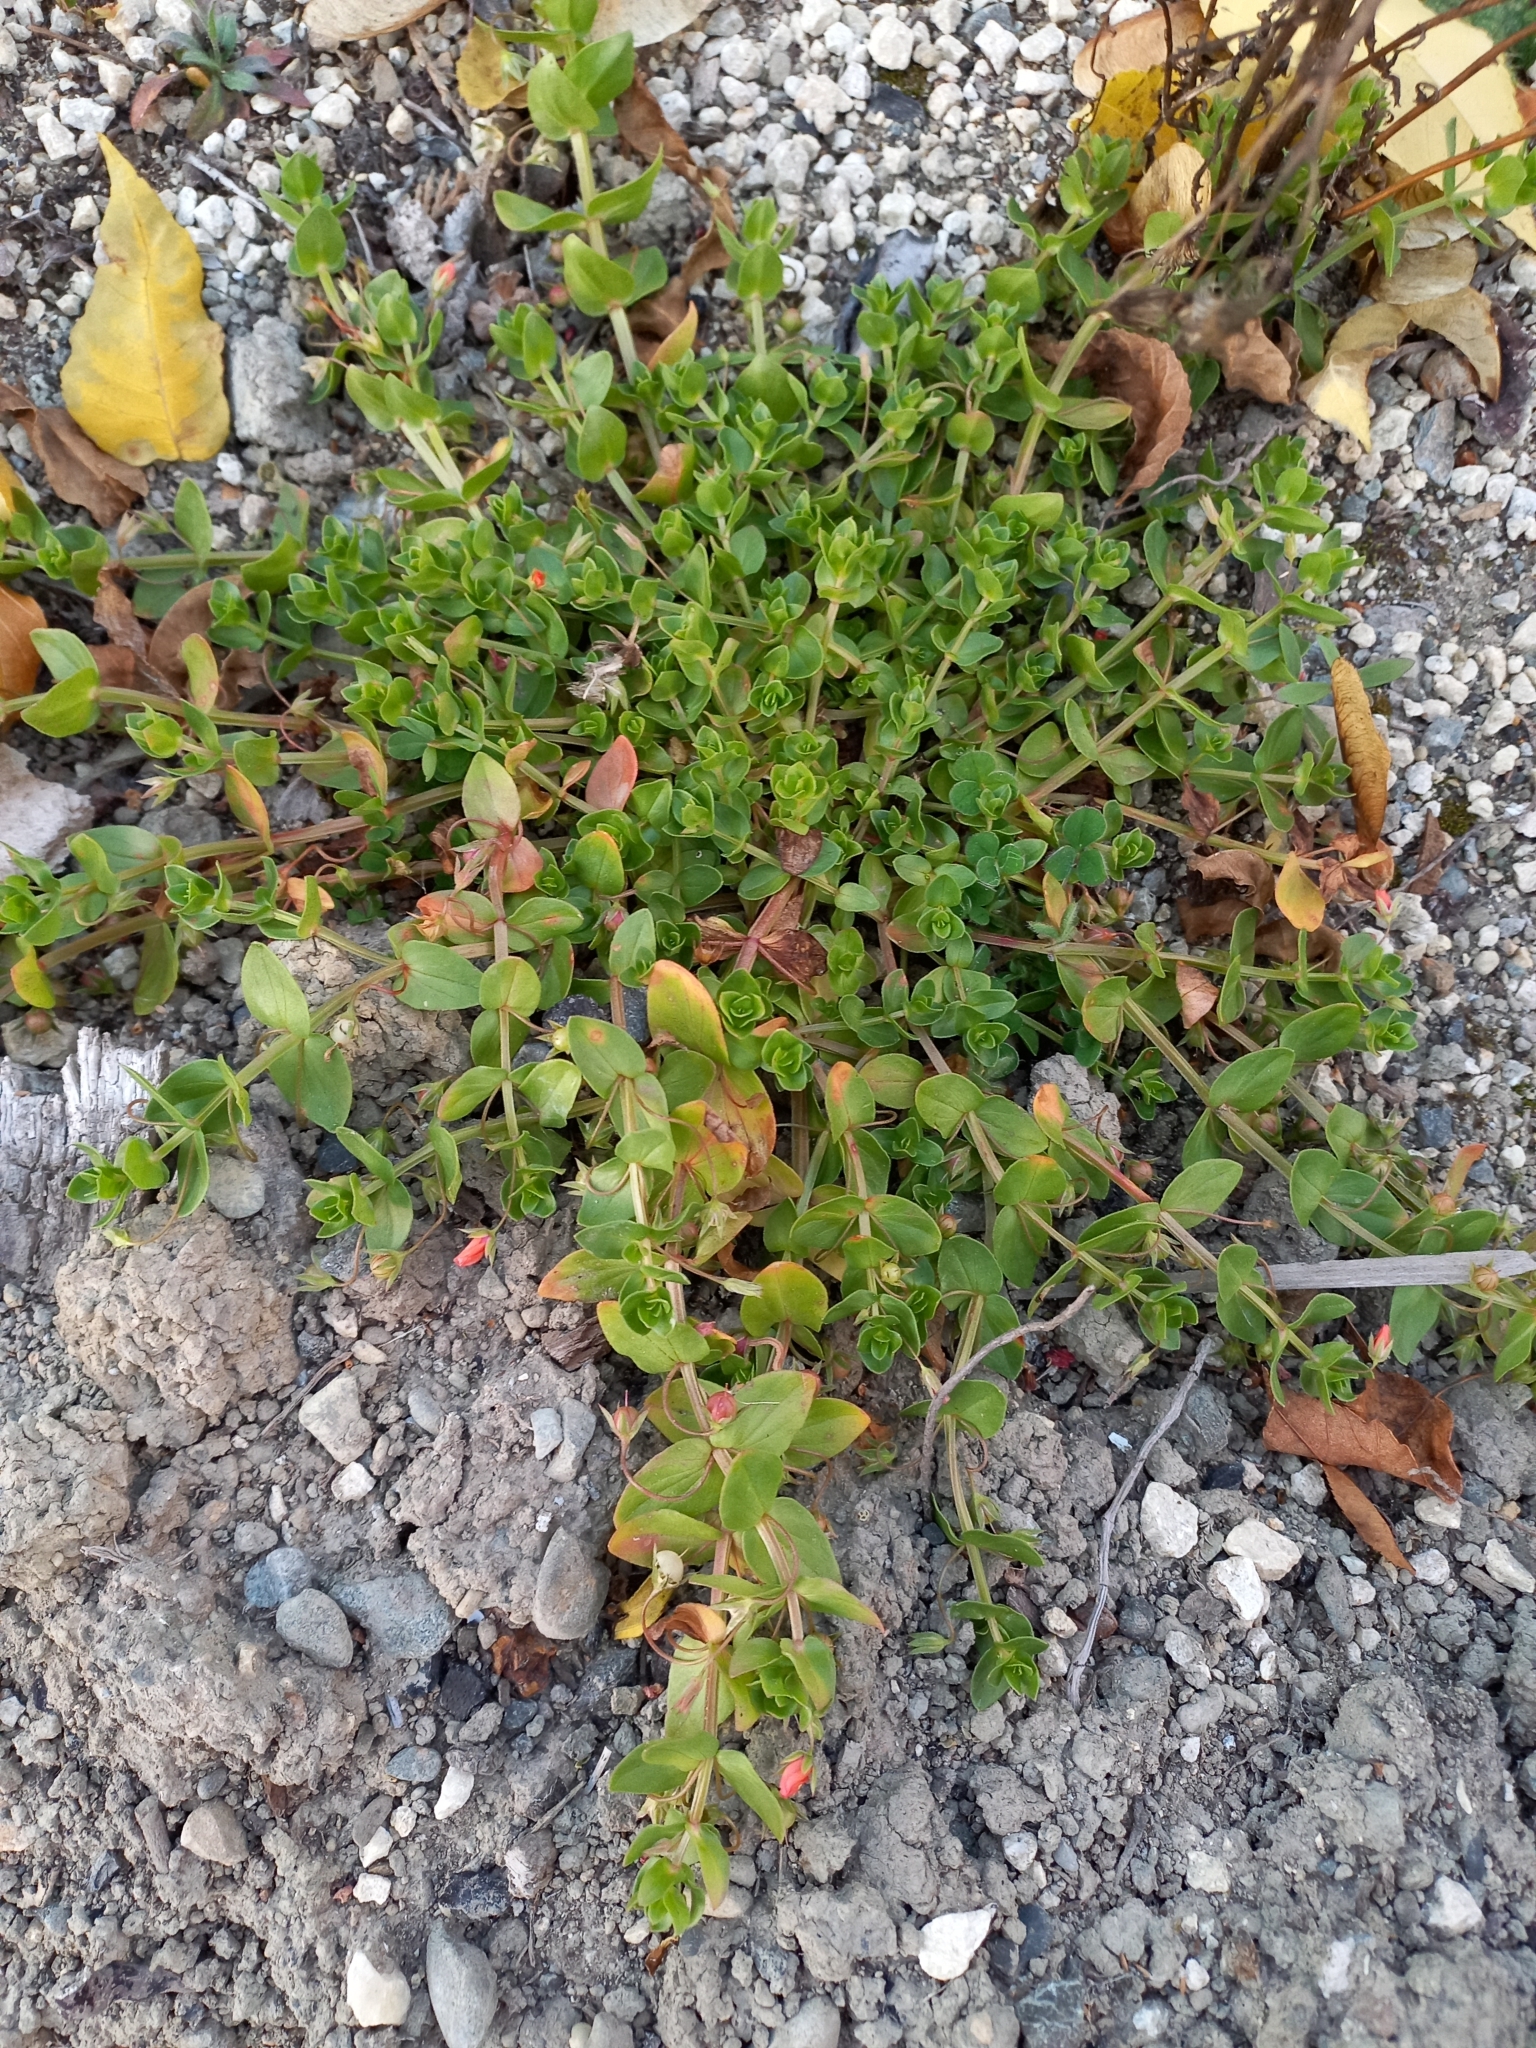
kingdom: Plantae
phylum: Tracheophyta
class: Magnoliopsida
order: Ericales
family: Primulaceae
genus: Lysimachia
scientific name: Lysimachia arvensis
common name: Scarlet pimpernel
